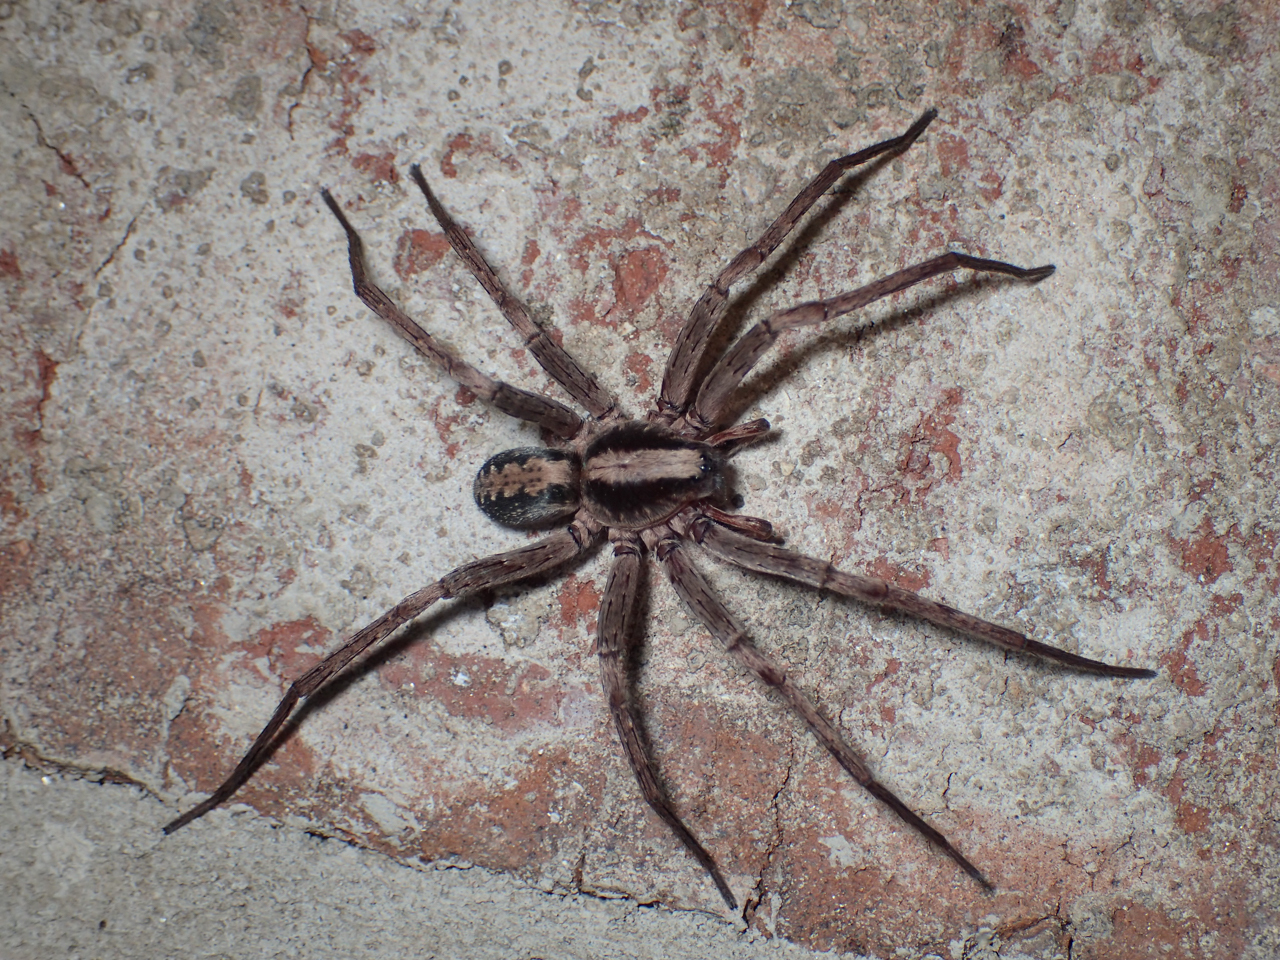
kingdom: Animalia
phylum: Arthropoda
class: Arachnida
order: Araneae
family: Ctenidae
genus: Ctenus
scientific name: Ctenus hibernalis
